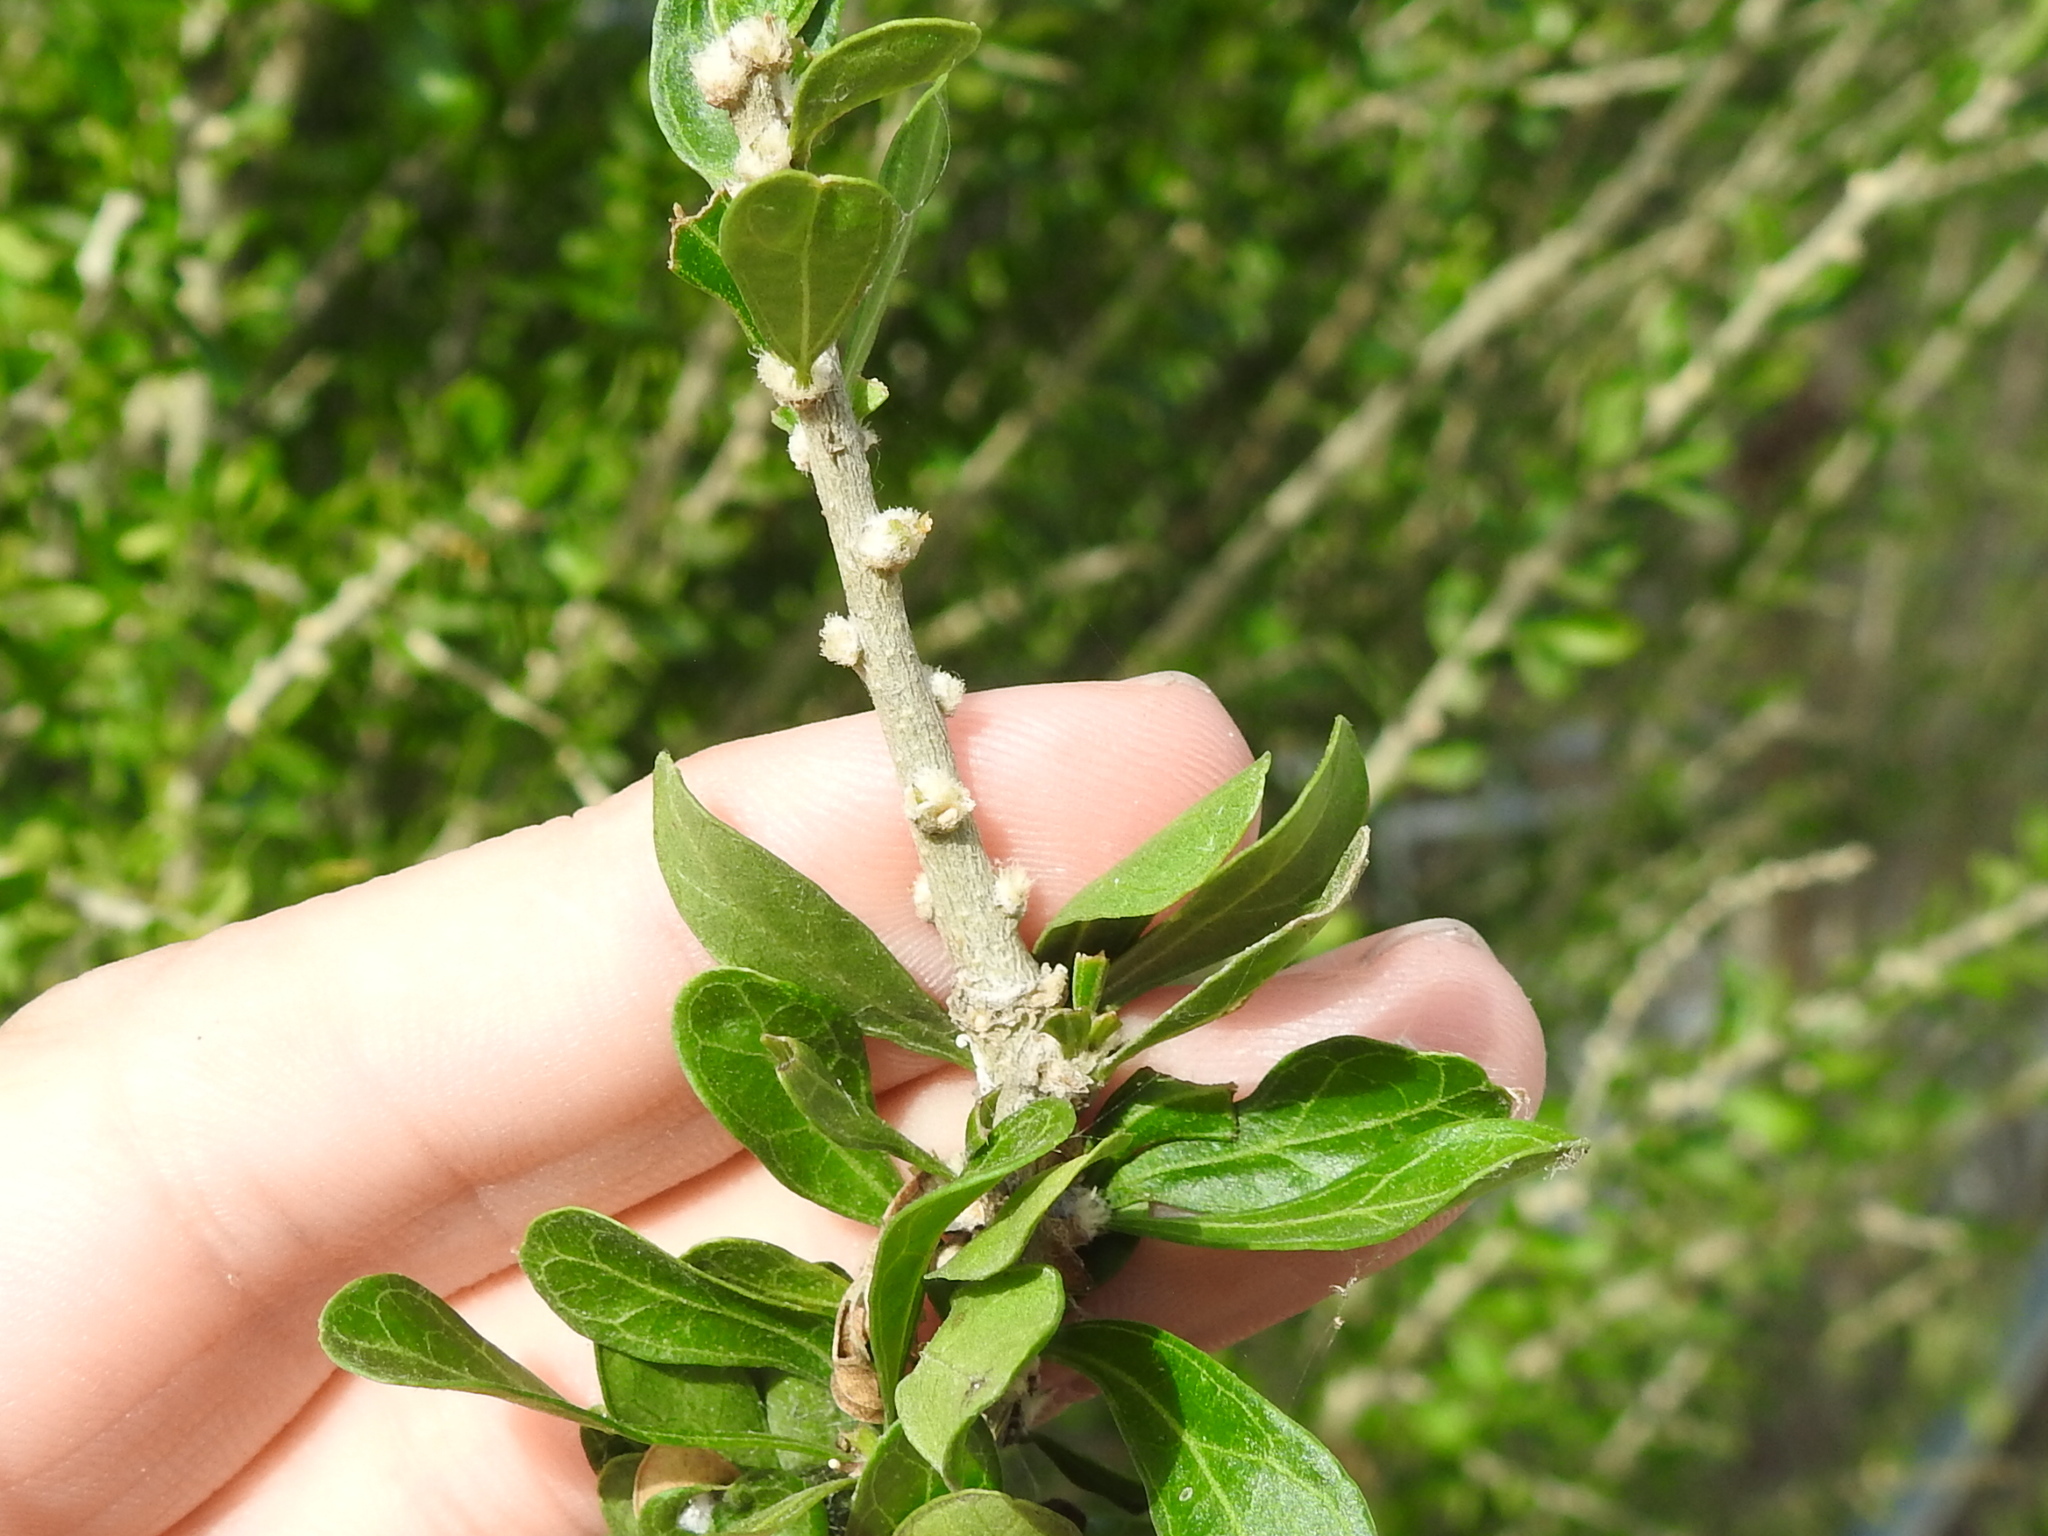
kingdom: Plantae
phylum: Tracheophyta
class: Magnoliopsida
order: Malpighiales
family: Euphorbiaceae
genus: Adelia
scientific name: Adelia vaseyi
